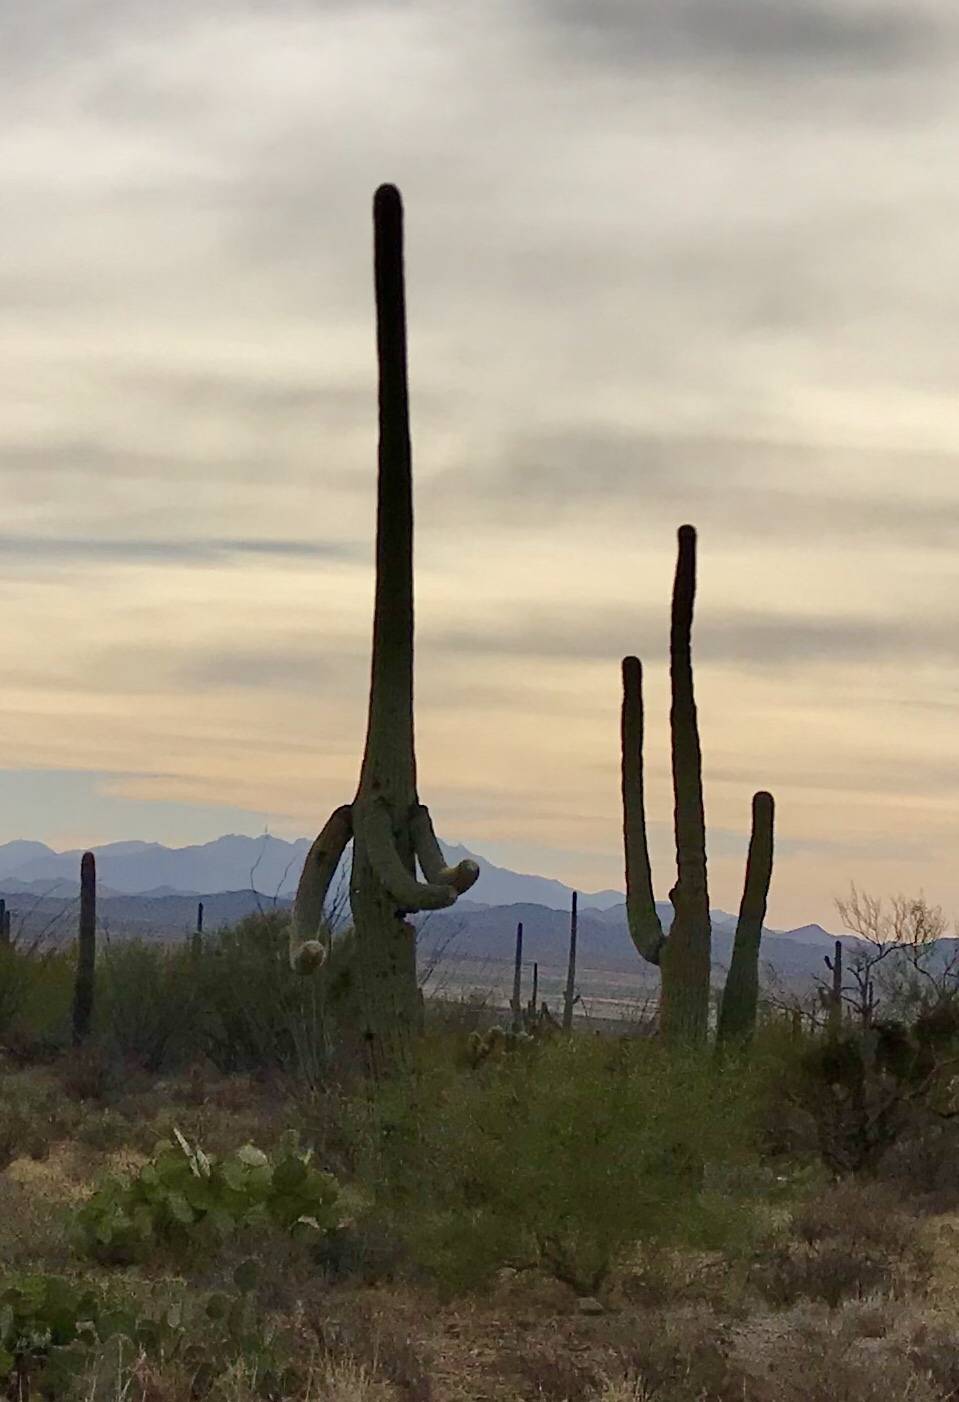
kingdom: Plantae
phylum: Tracheophyta
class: Magnoliopsida
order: Caryophyllales
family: Cactaceae
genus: Carnegiea
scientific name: Carnegiea gigantea
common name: Saguaro
